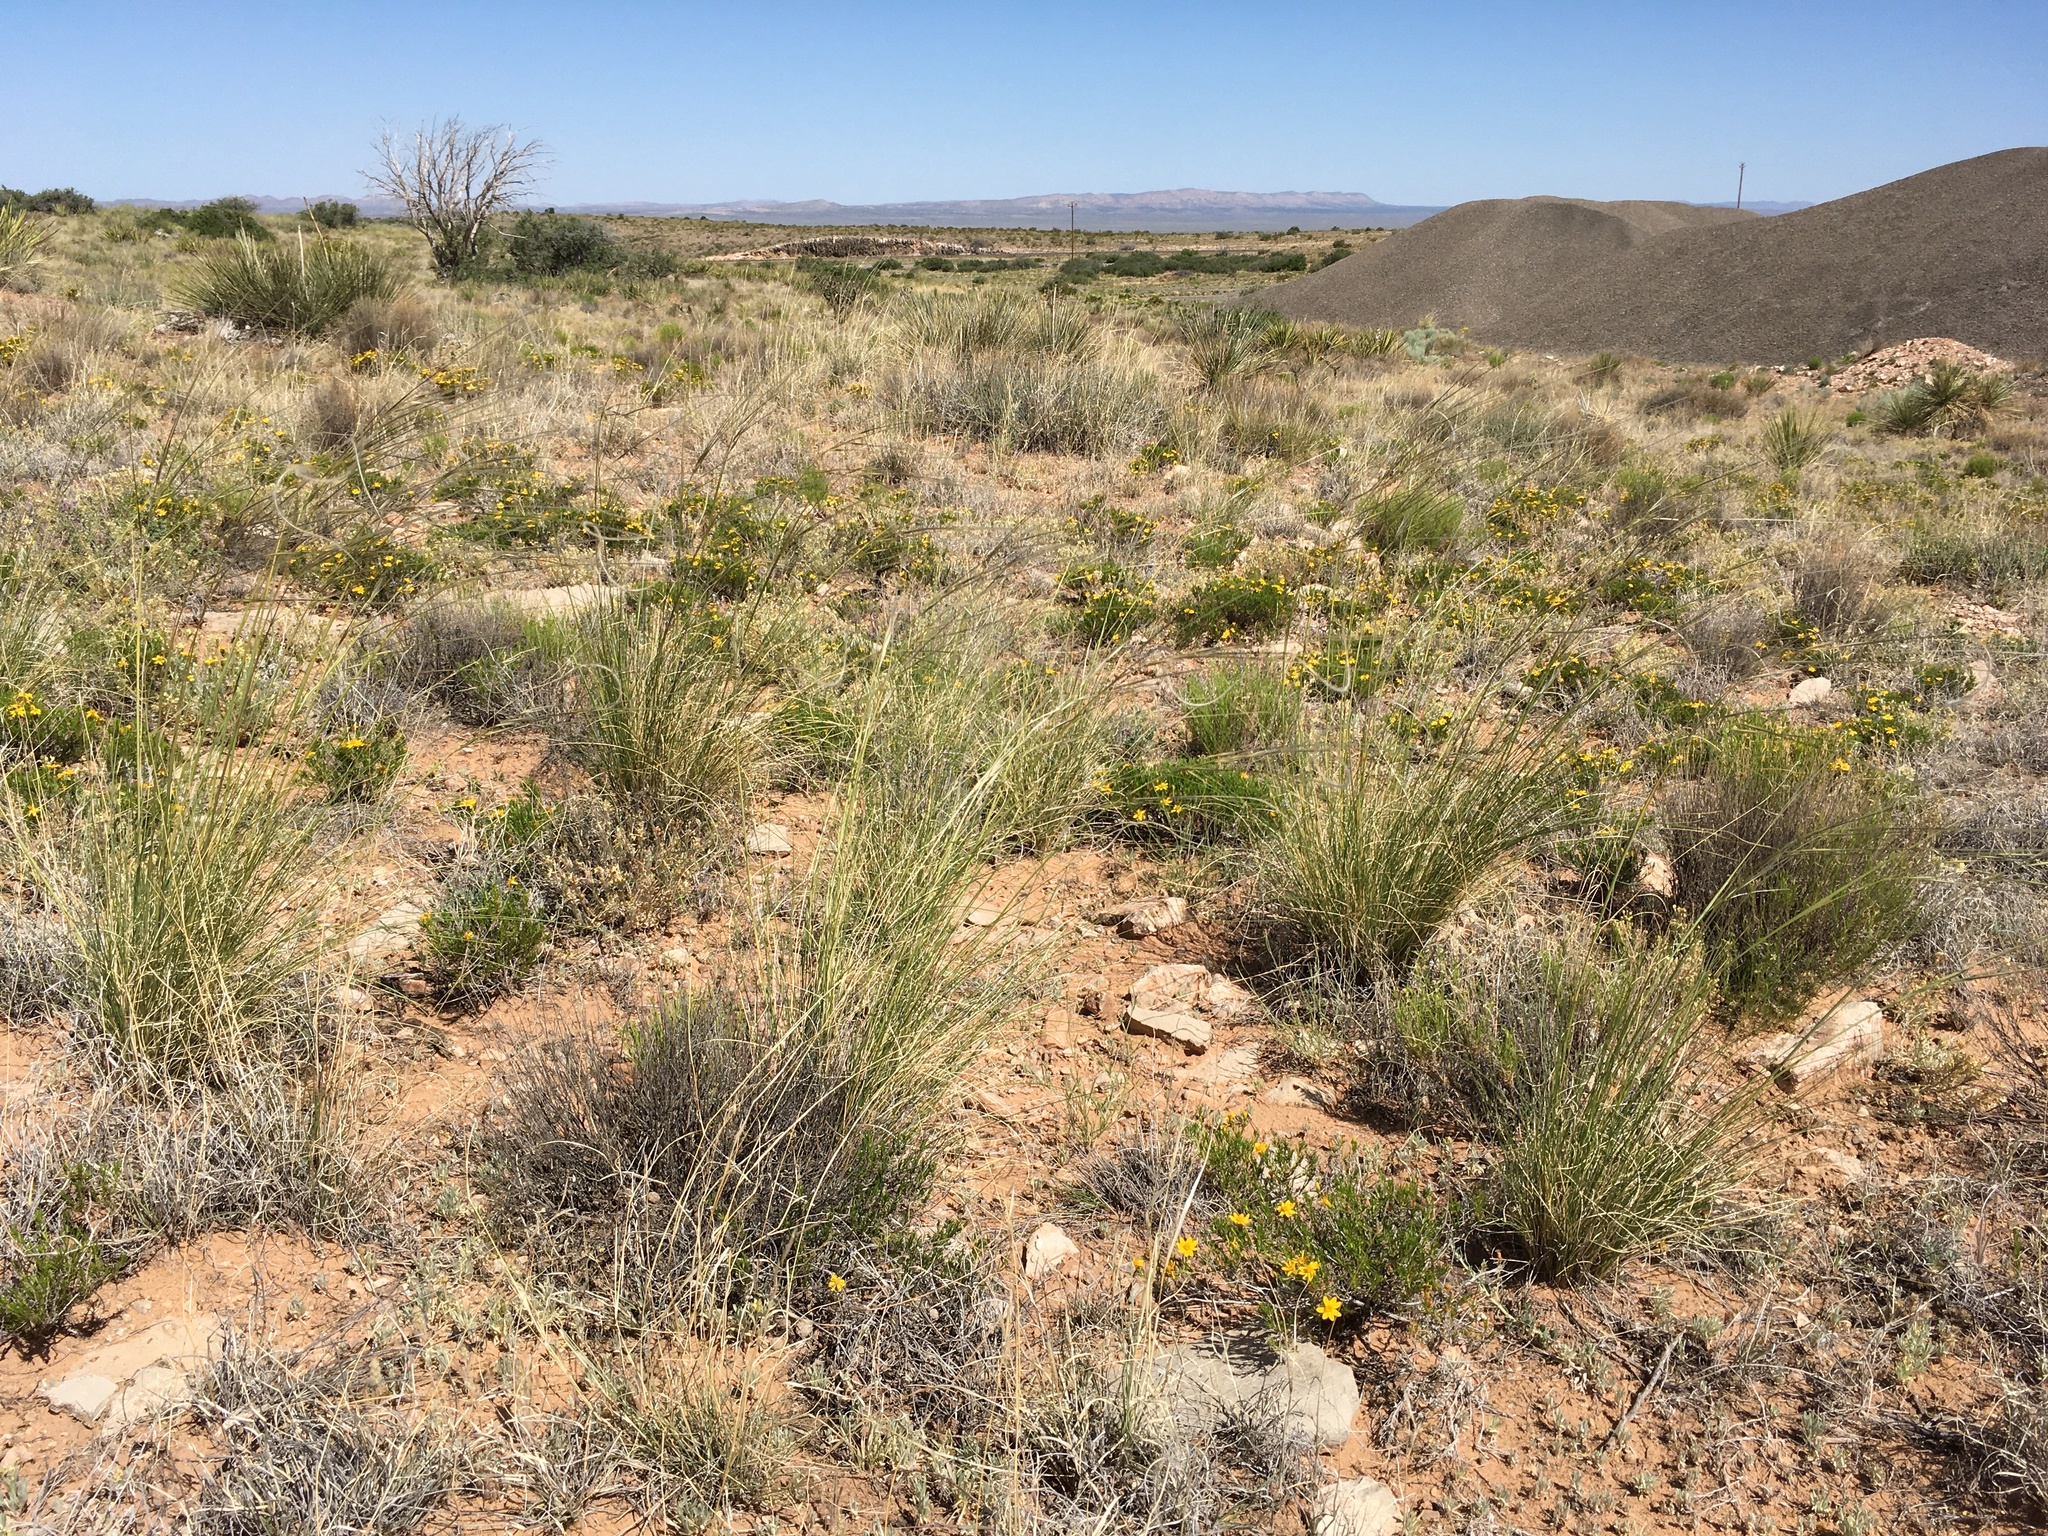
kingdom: Plantae
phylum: Tracheophyta
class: Liliopsida
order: Poales
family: Poaceae
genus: Hesperostipa
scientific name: Hesperostipa neomexicana
